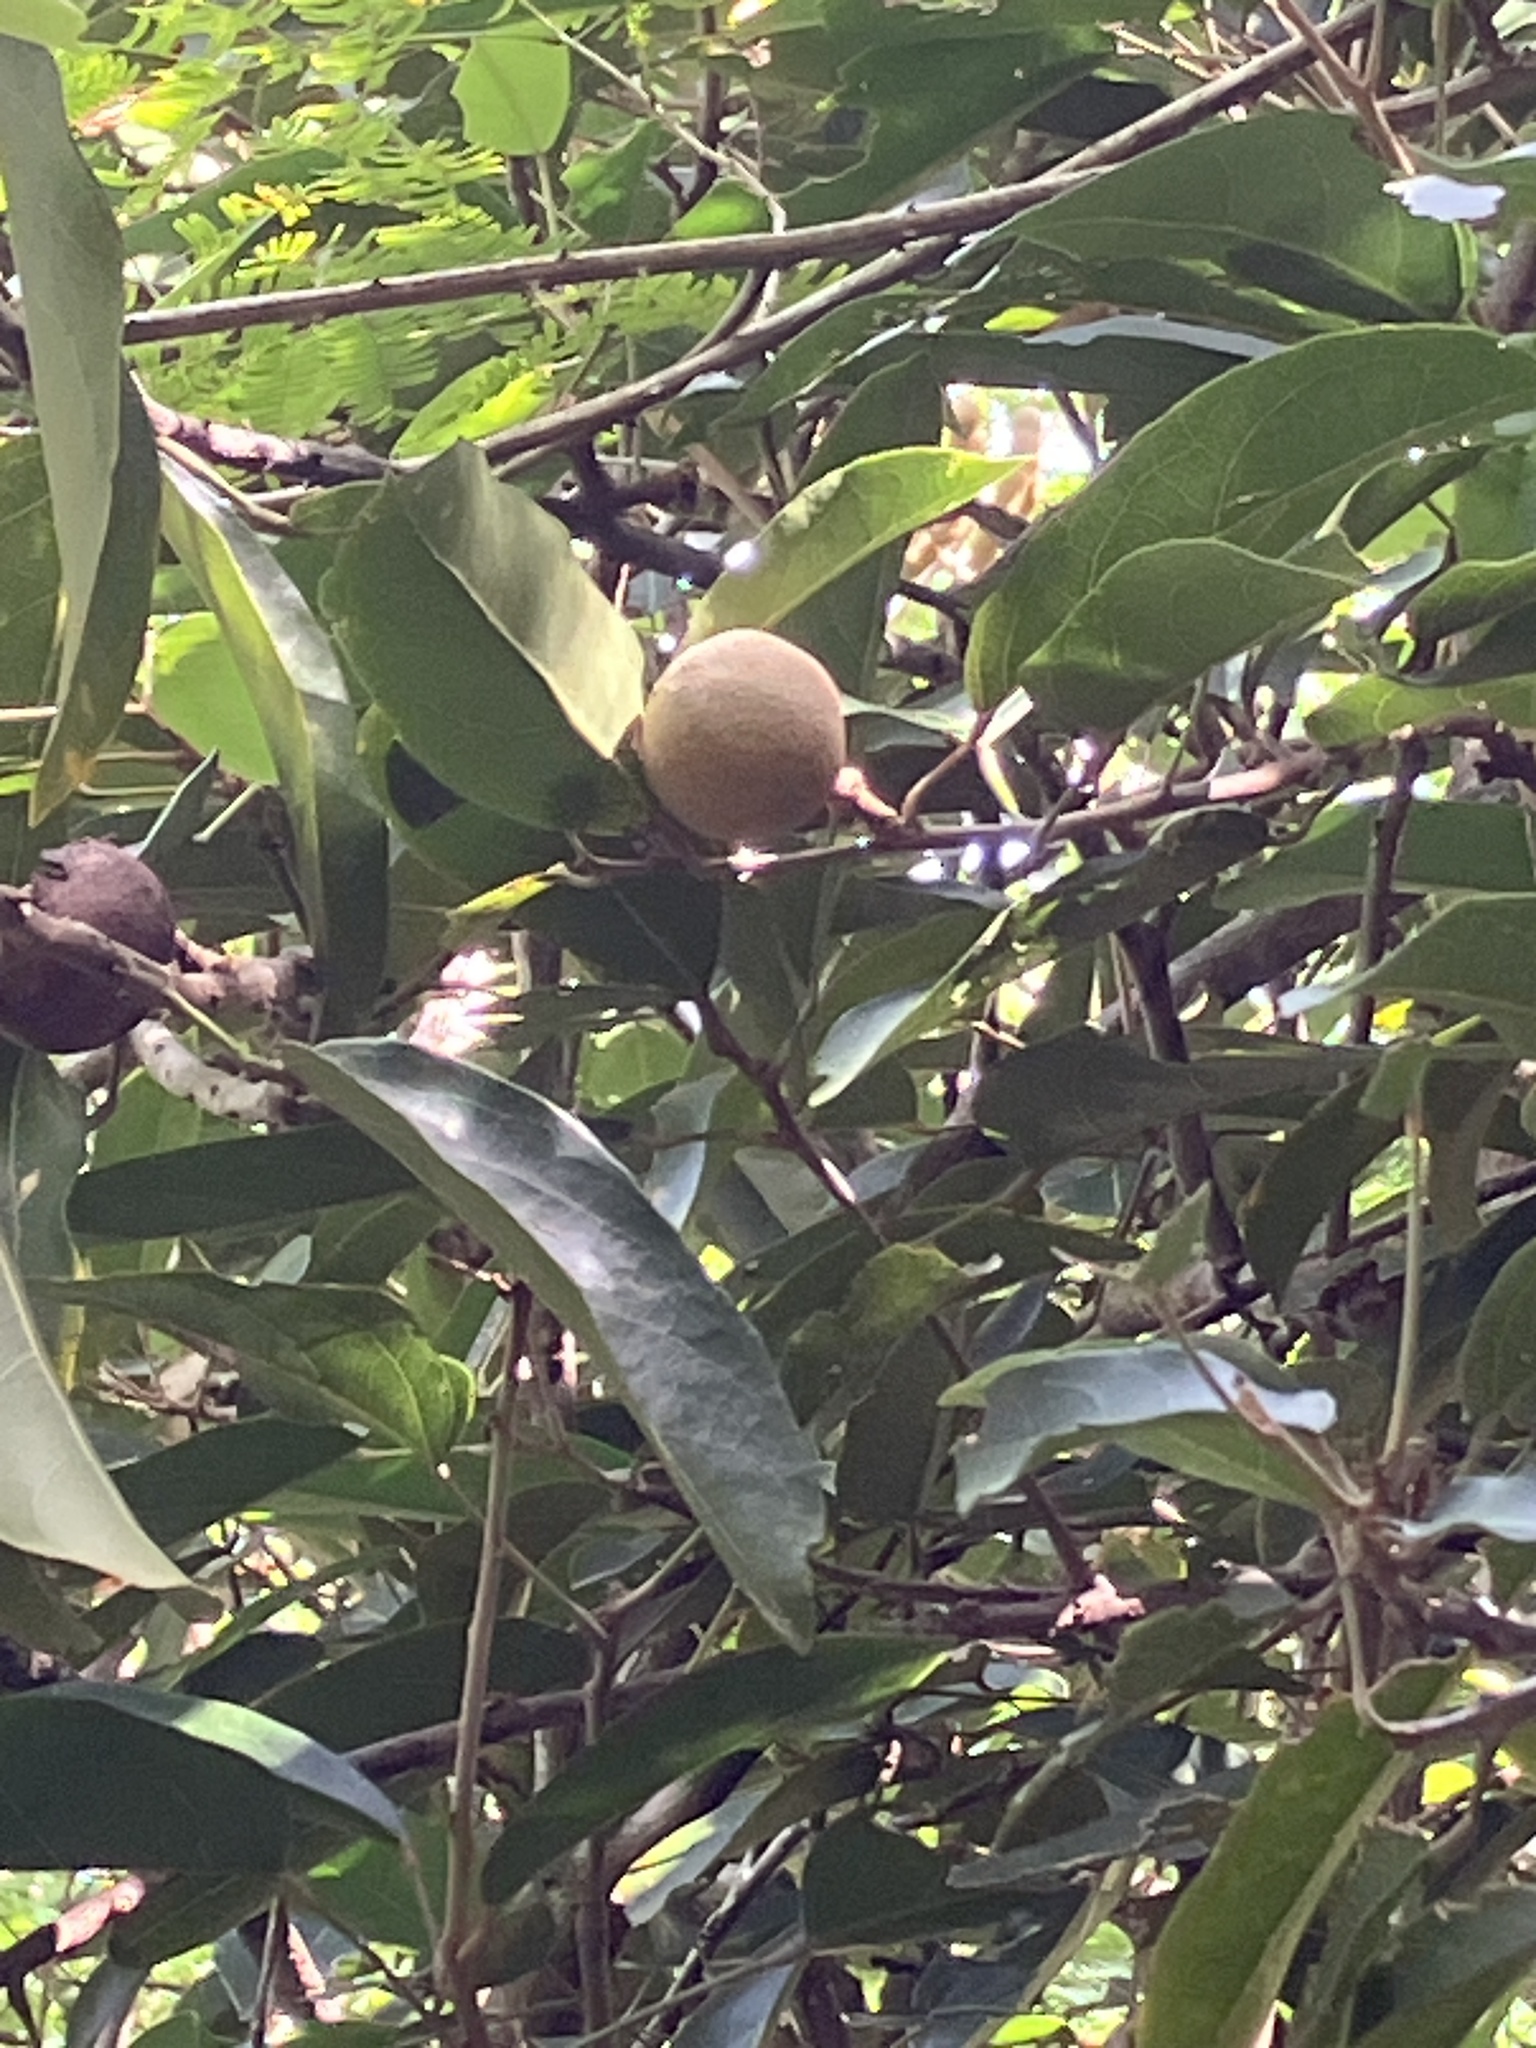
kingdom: Plantae
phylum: Tracheophyta
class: Magnoliopsida
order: Brassicales
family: Capparaceae
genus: Morisonia
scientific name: Morisonia americana
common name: Wild mesple
